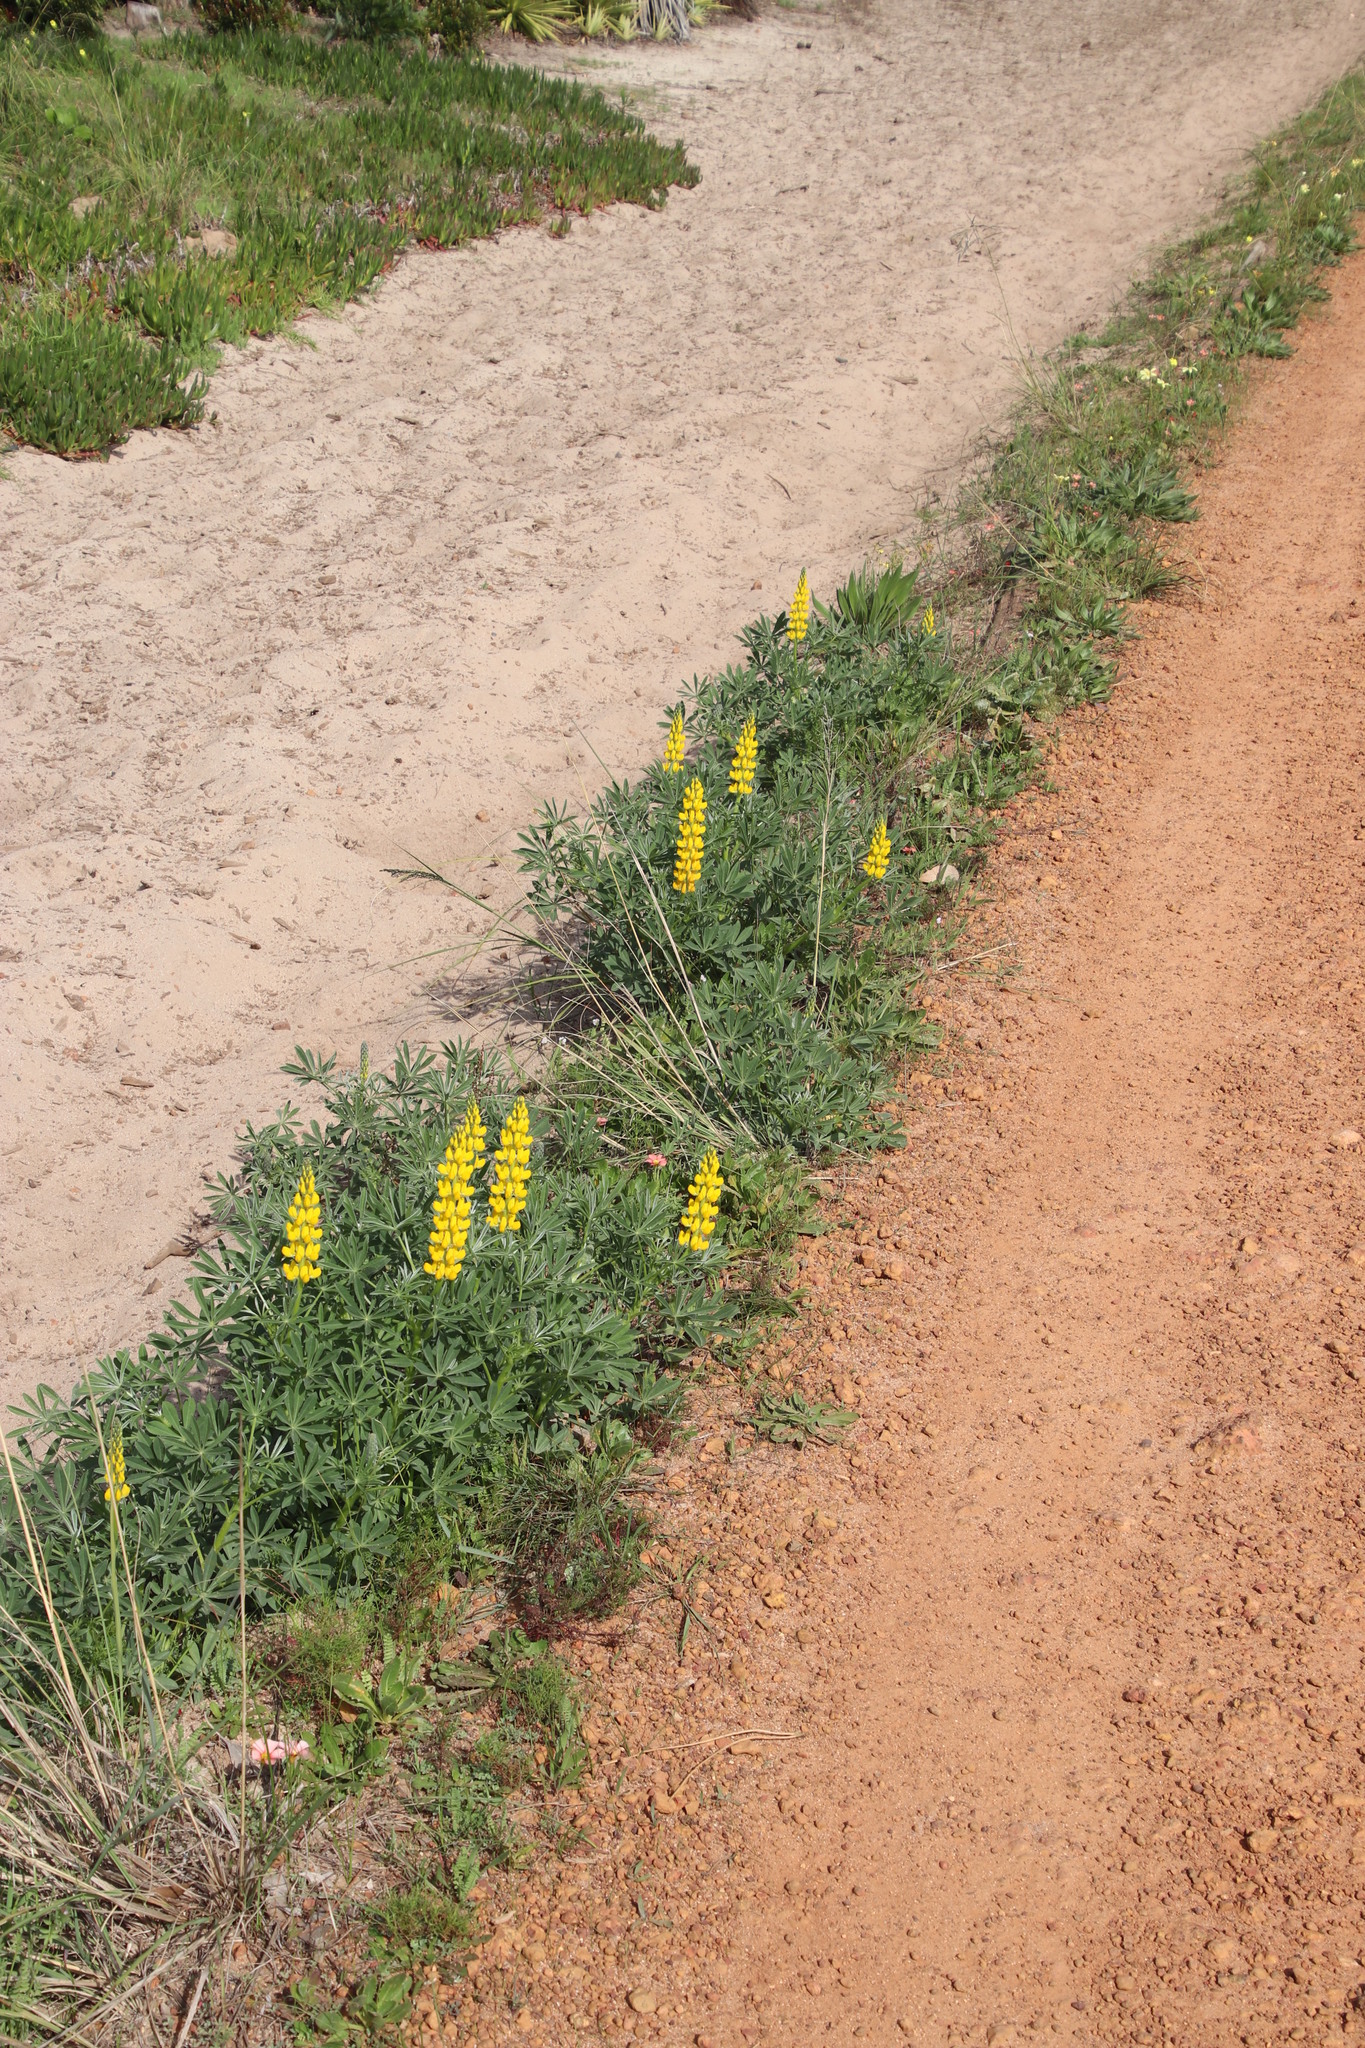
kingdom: Plantae
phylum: Tracheophyta
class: Magnoliopsida
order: Fabales
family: Fabaceae
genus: Lupinus
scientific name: Lupinus luteus
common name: European yellow lupine
